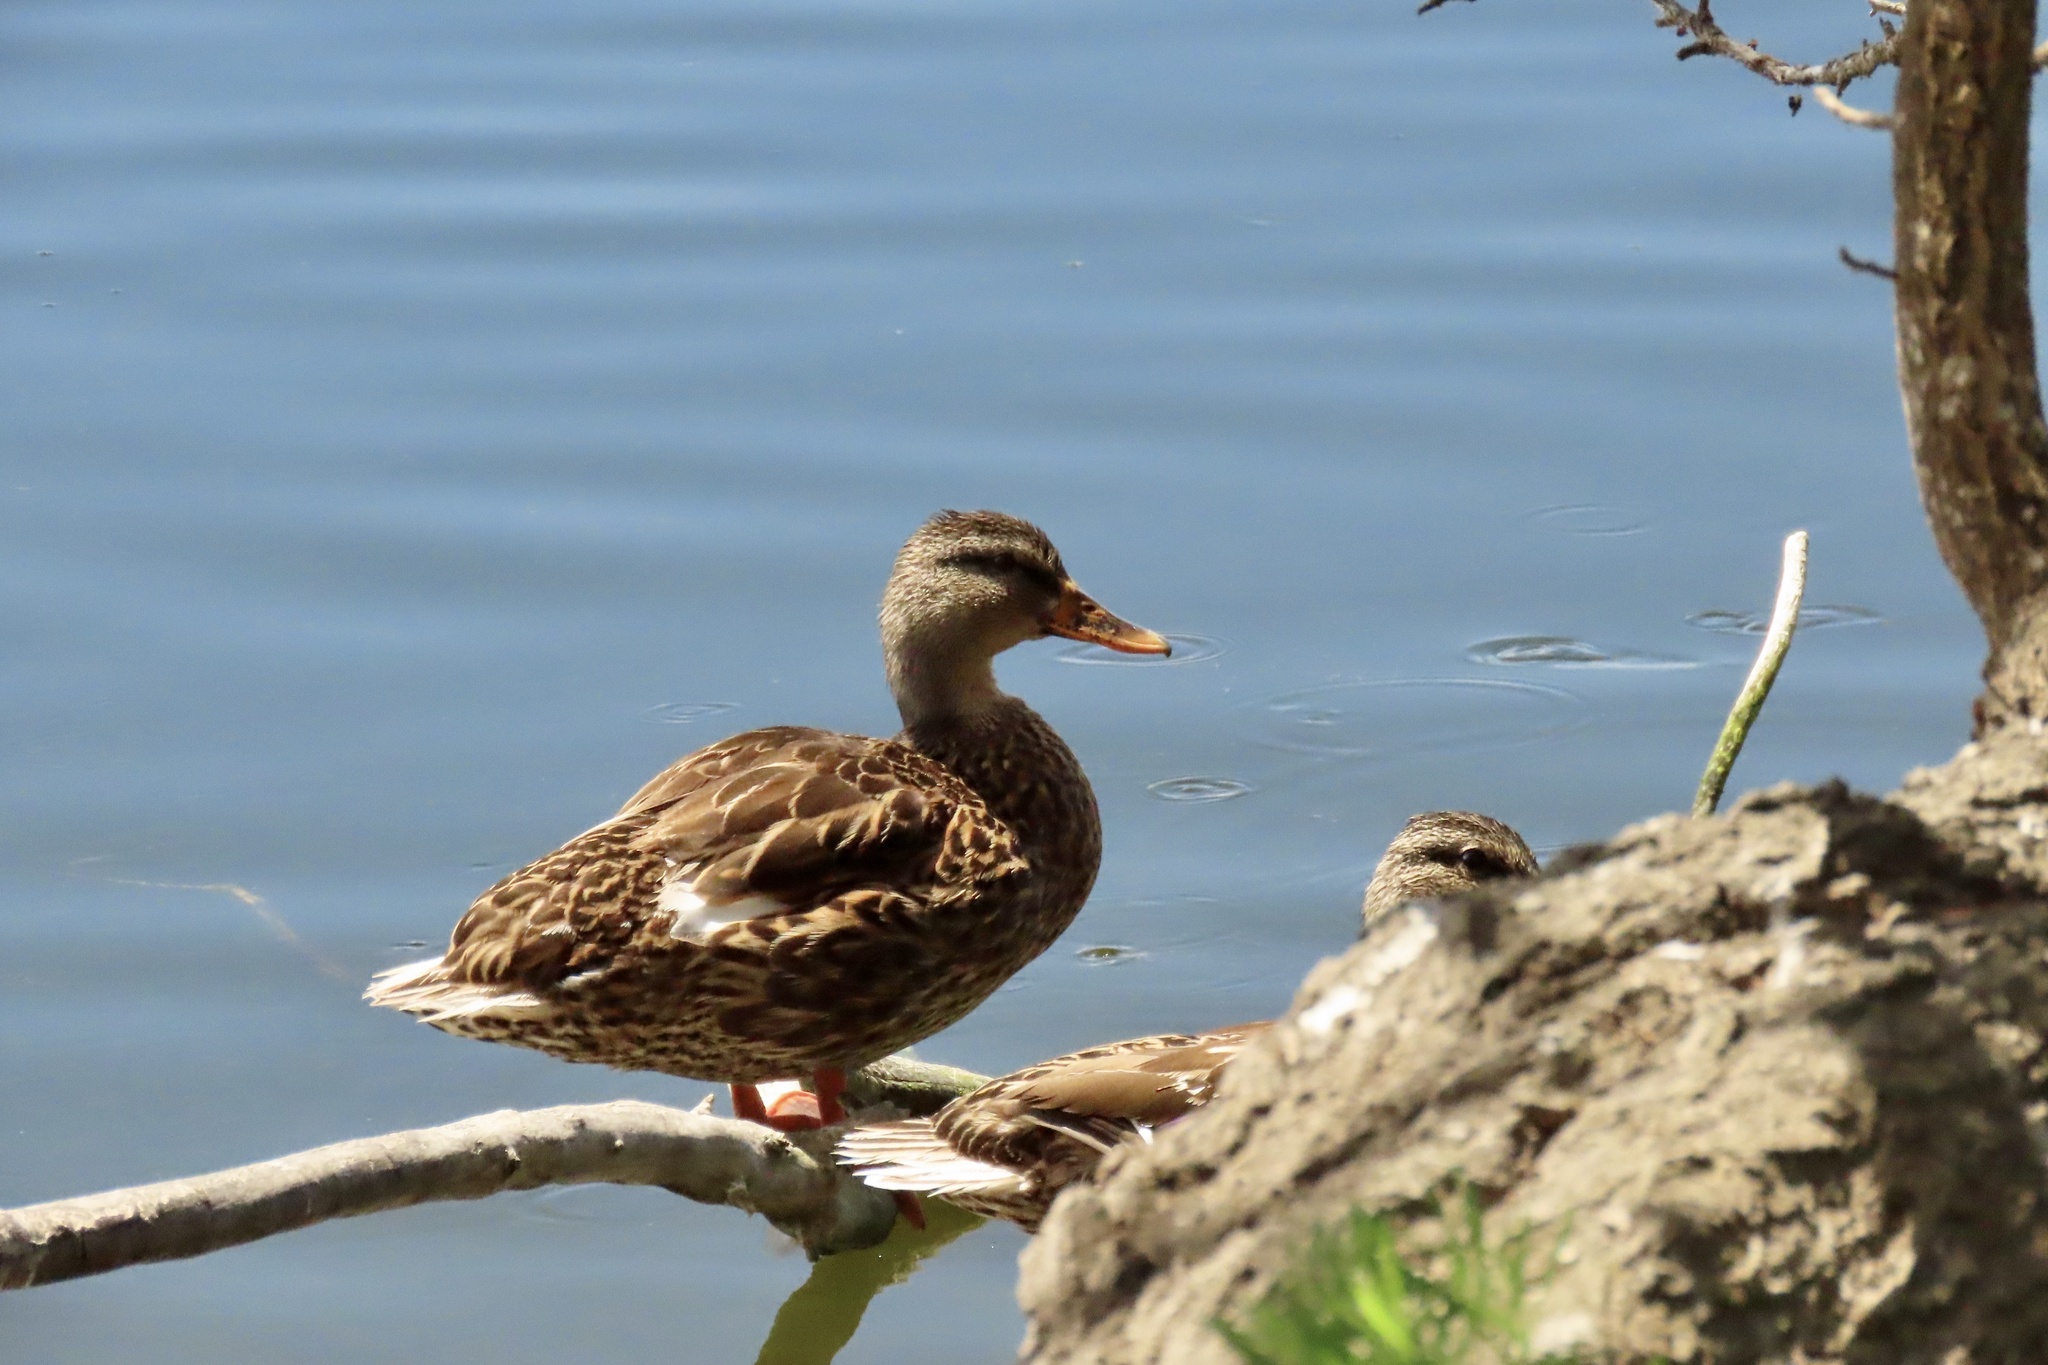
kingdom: Animalia
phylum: Chordata
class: Aves
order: Anseriformes
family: Anatidae
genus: Anas
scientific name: Anas platyrhynchos
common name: Mallard
